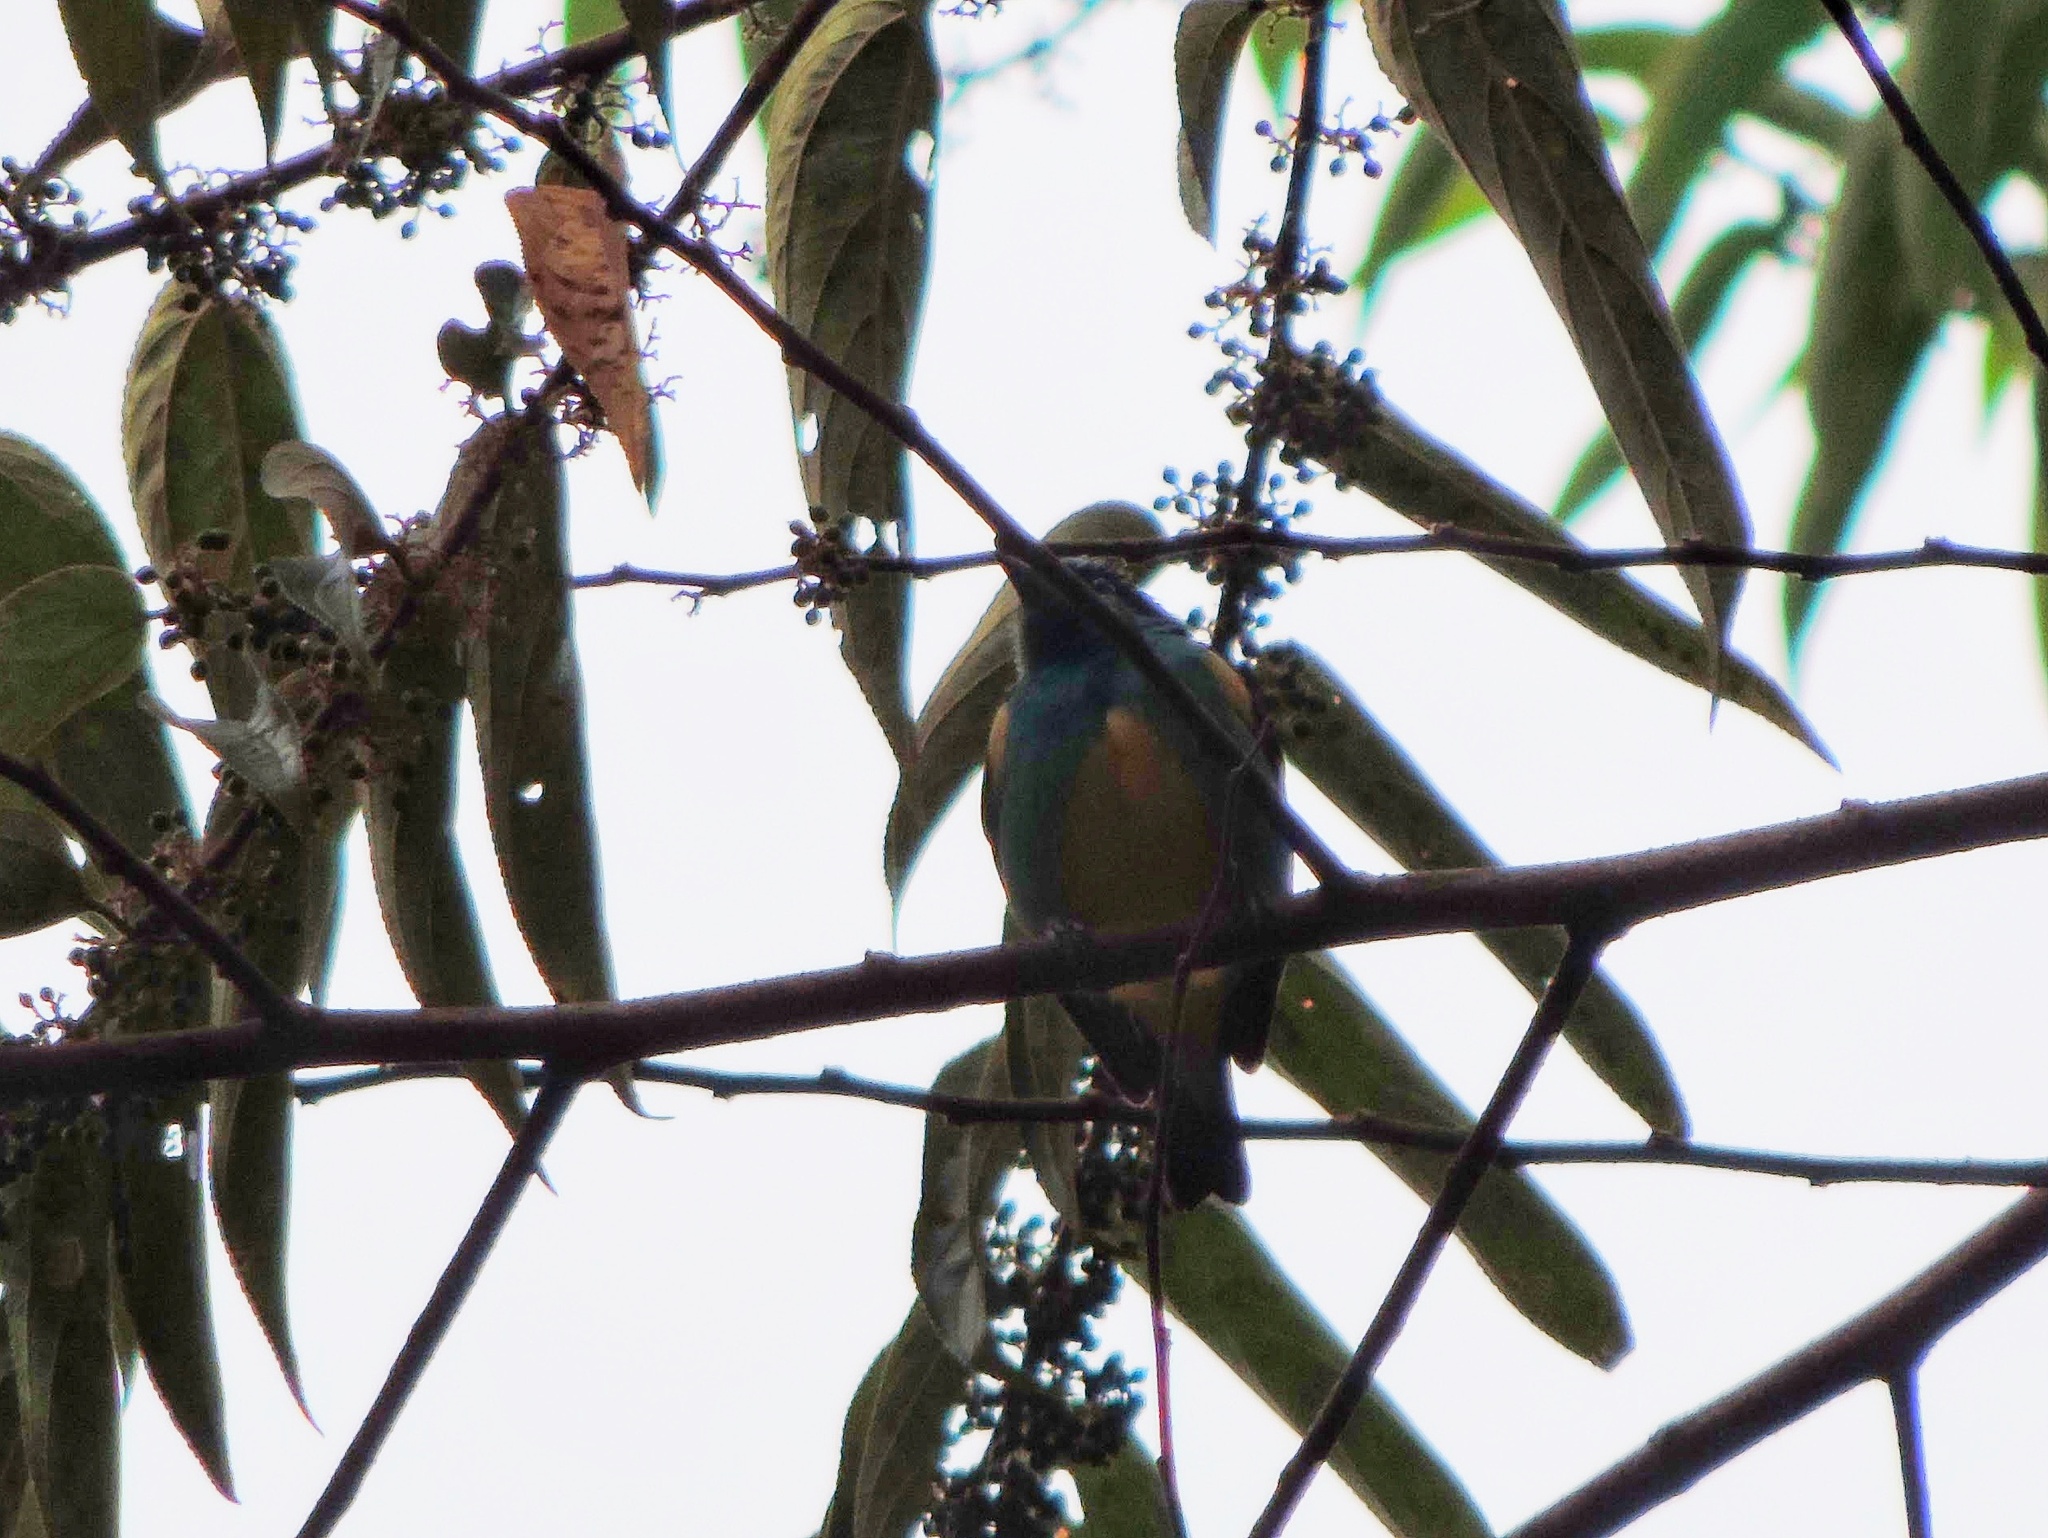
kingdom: Animalia
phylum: Chordata
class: Aves
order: Passeriformes
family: Thraupidae
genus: Dacnis
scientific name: Dacnis lineata
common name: Black-faced dacnis
